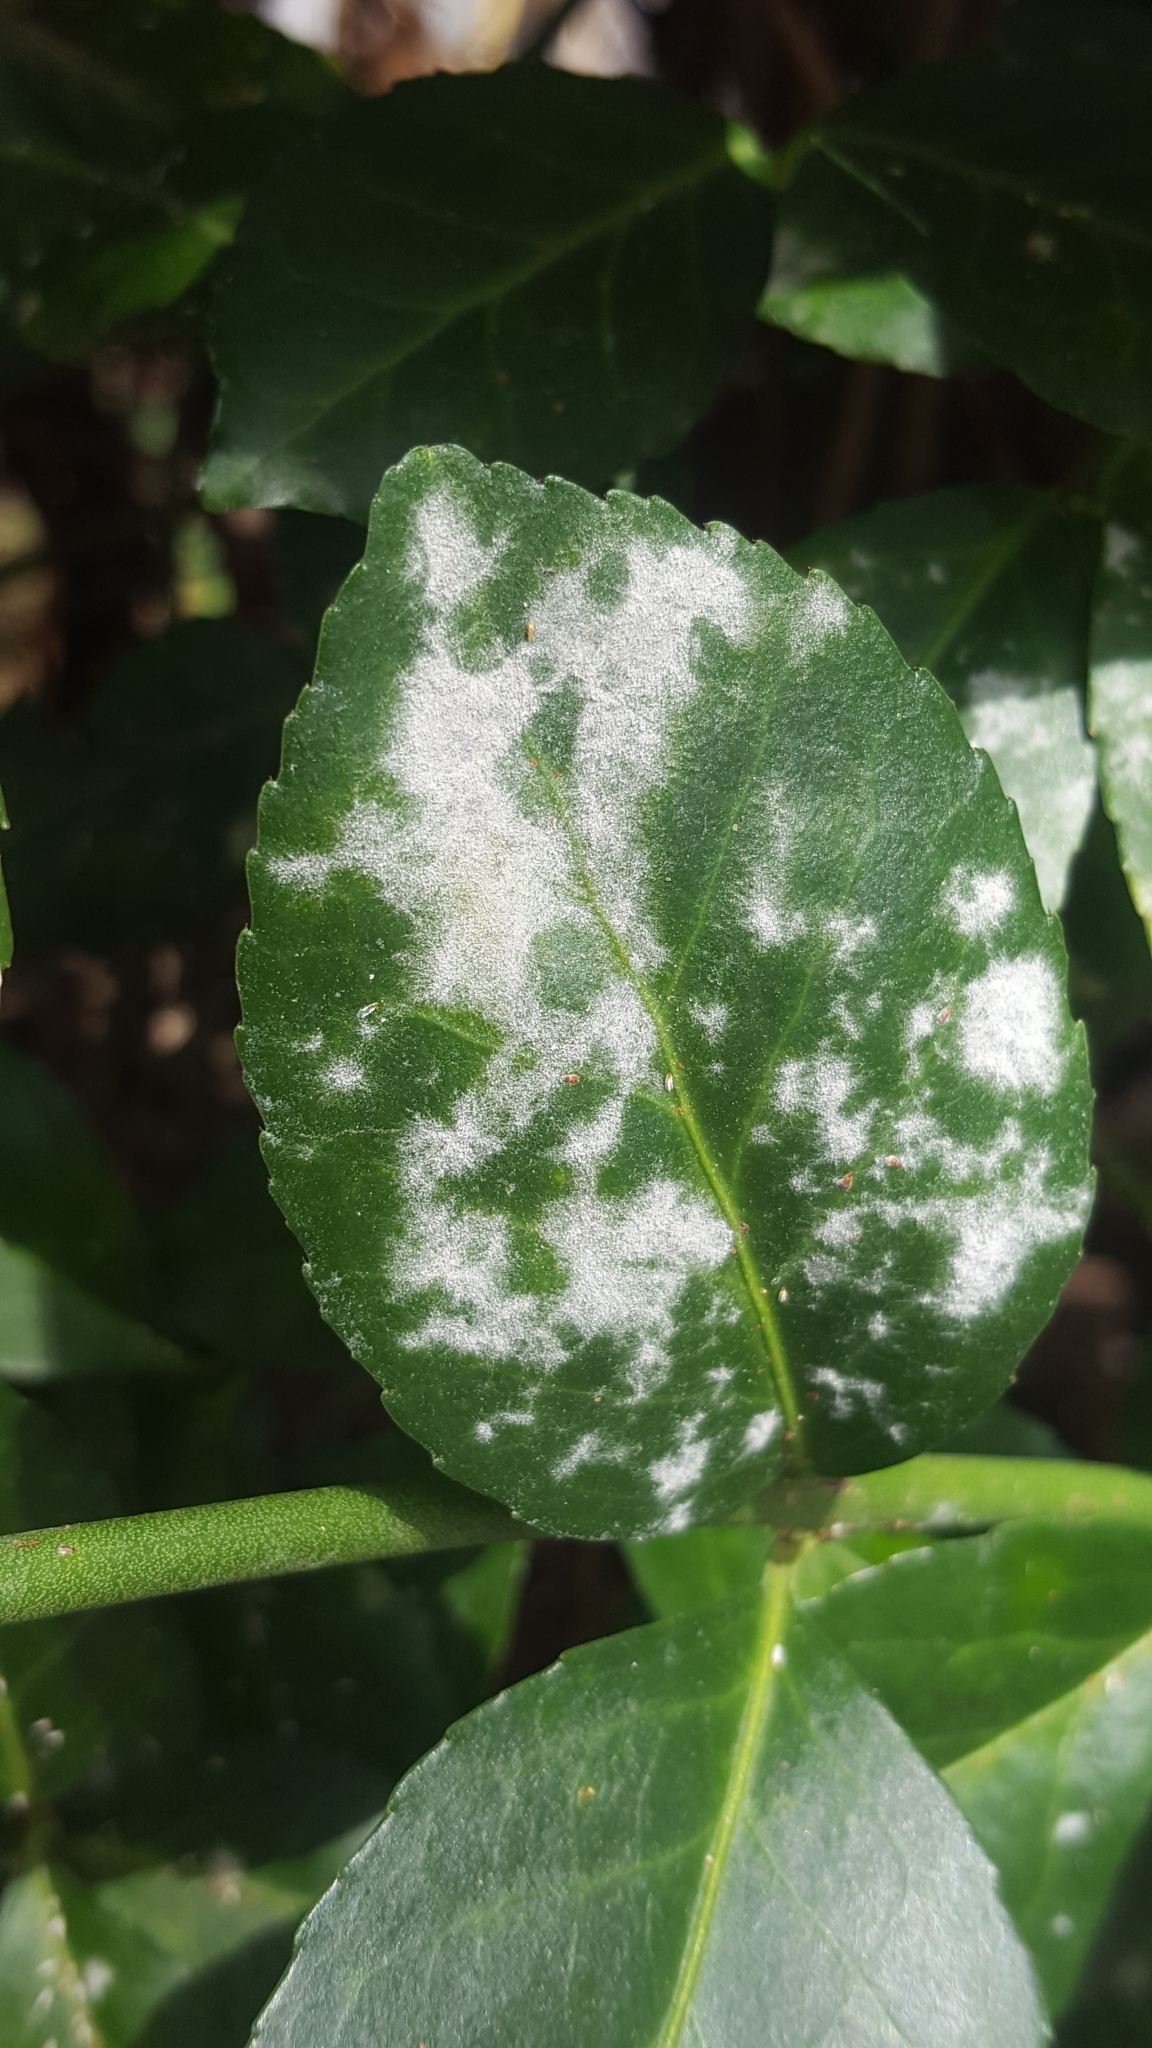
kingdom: Fungi
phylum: Ascomycota
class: Leotiomycetes
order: Helotiales
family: Erysiphaceae
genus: Erysiphe
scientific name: Erysiphe euonymicola
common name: Spindletree mildew
